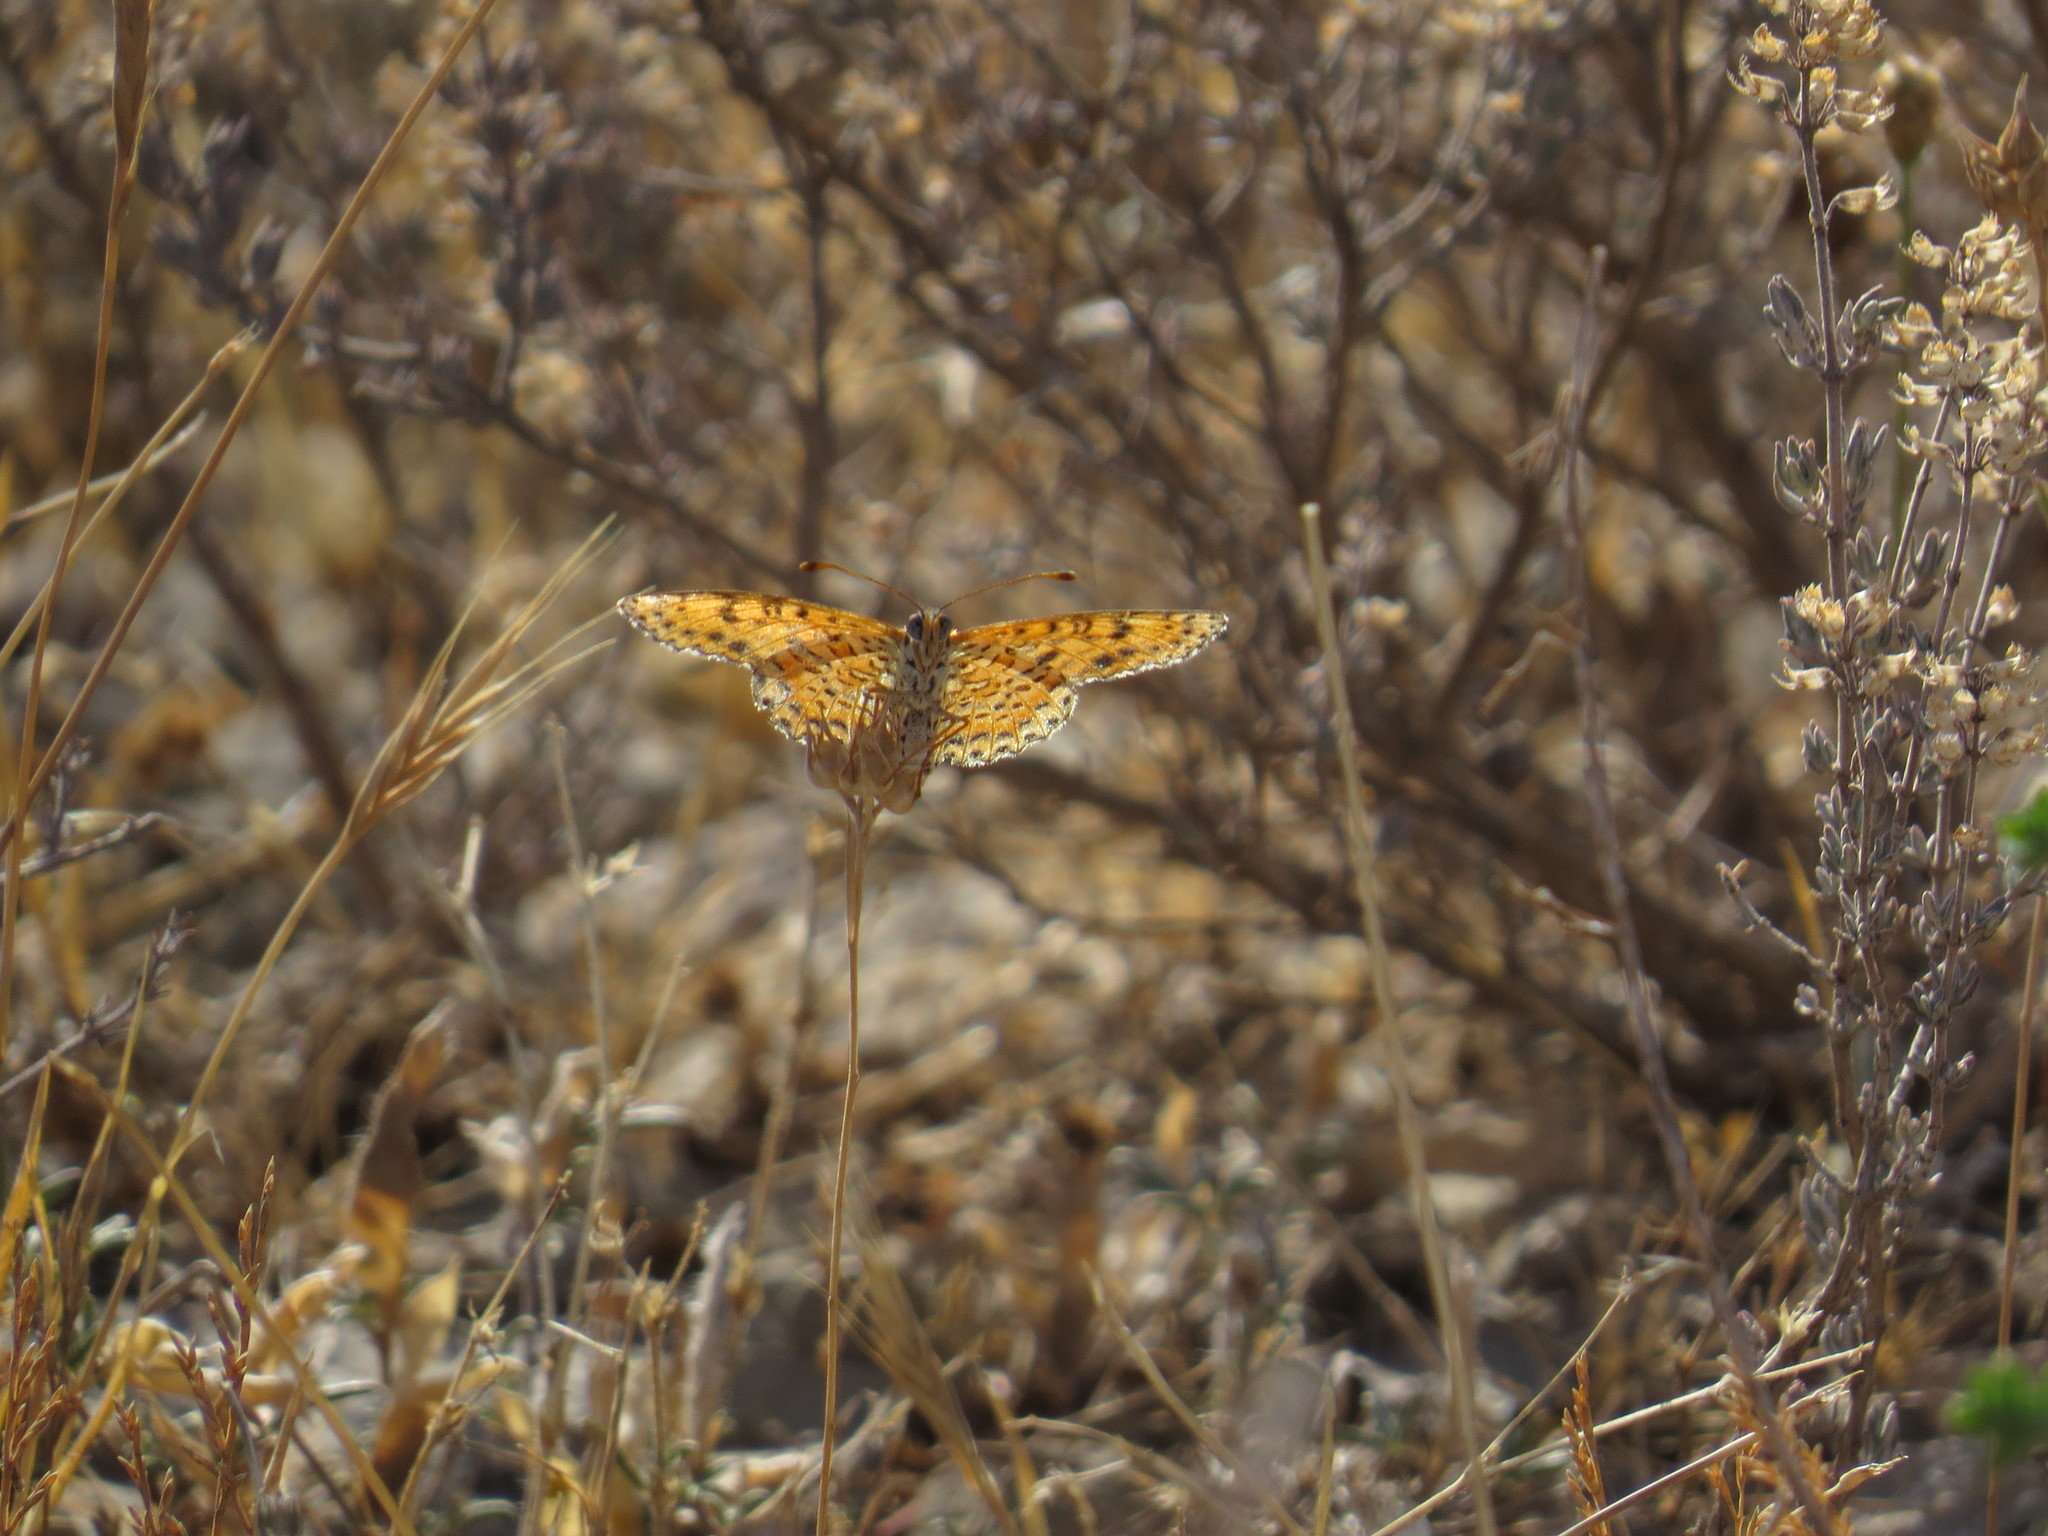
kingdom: Animalia
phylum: Arthropoda
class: Insecta
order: Lepidoptera
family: Nymphalidae
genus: Melitaea
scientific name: Melitaea didyma
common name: Spotted fritillary
